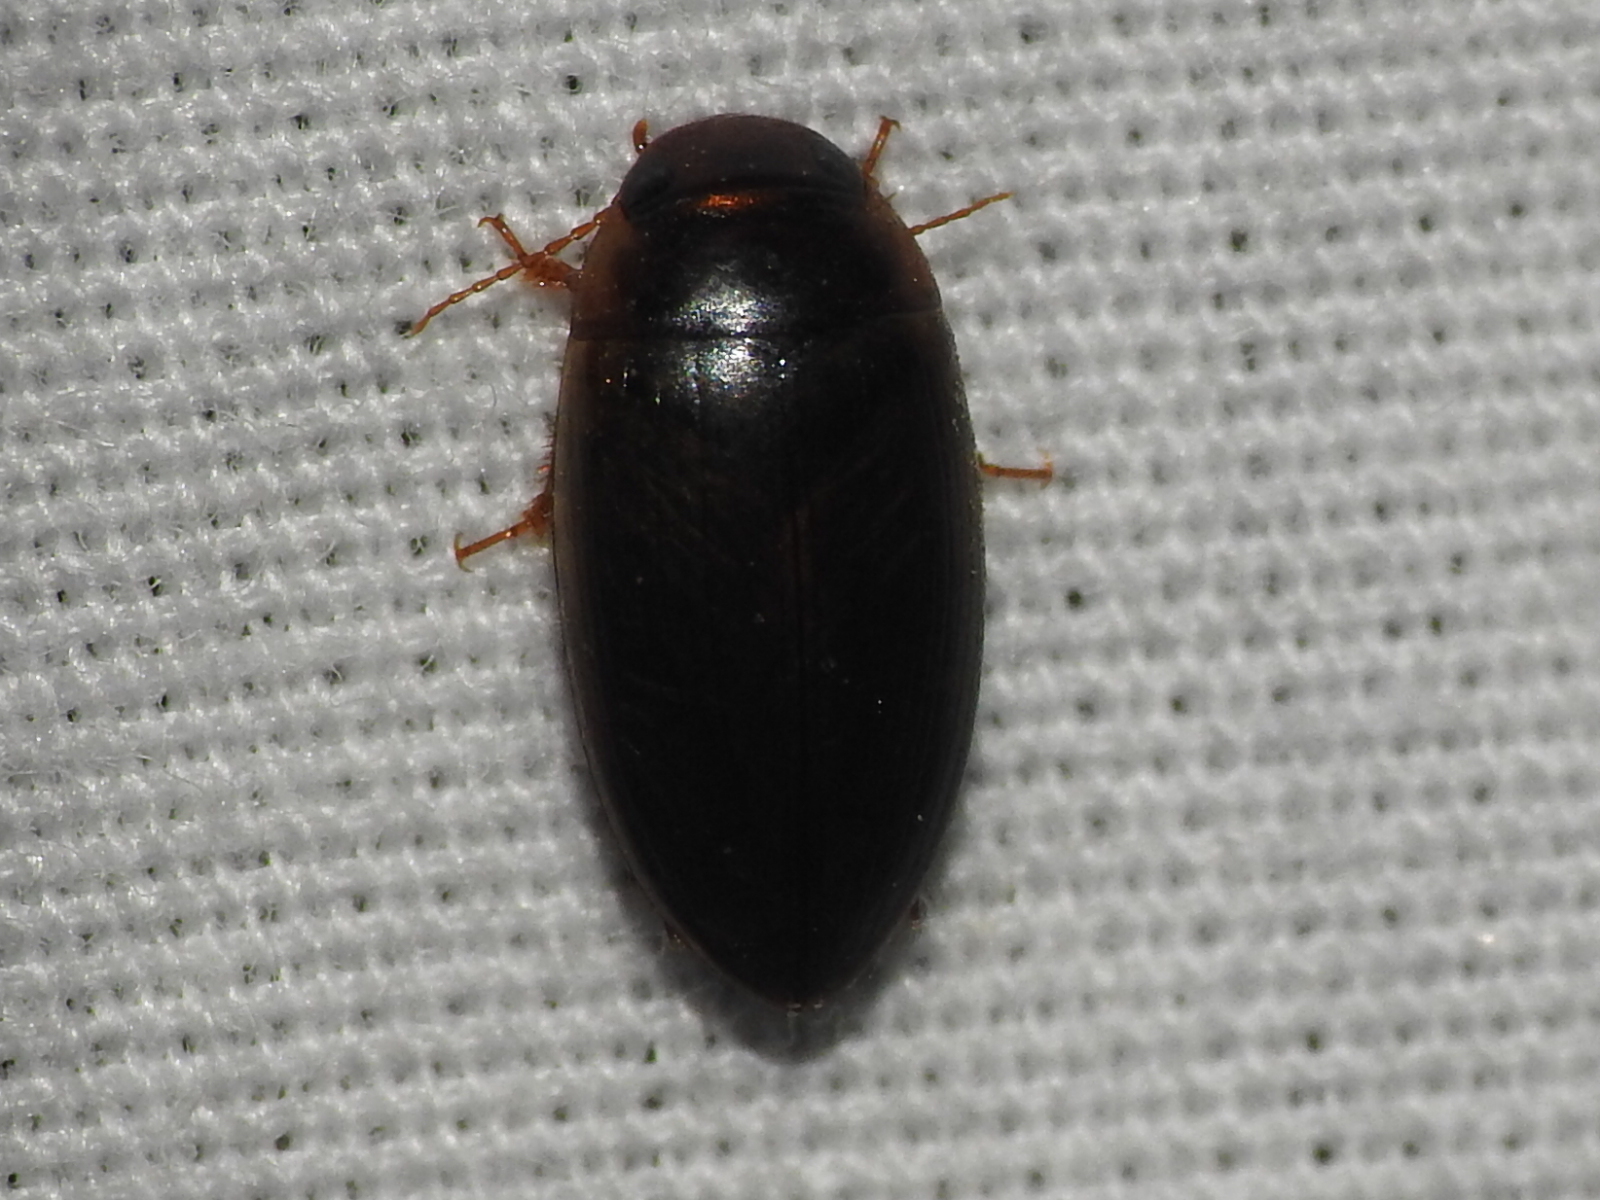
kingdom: Animalia
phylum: Arthropoda
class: Insecta
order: Coleoptera
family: Dytiscidae
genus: Copelatus
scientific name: Copelatus chevrolati
